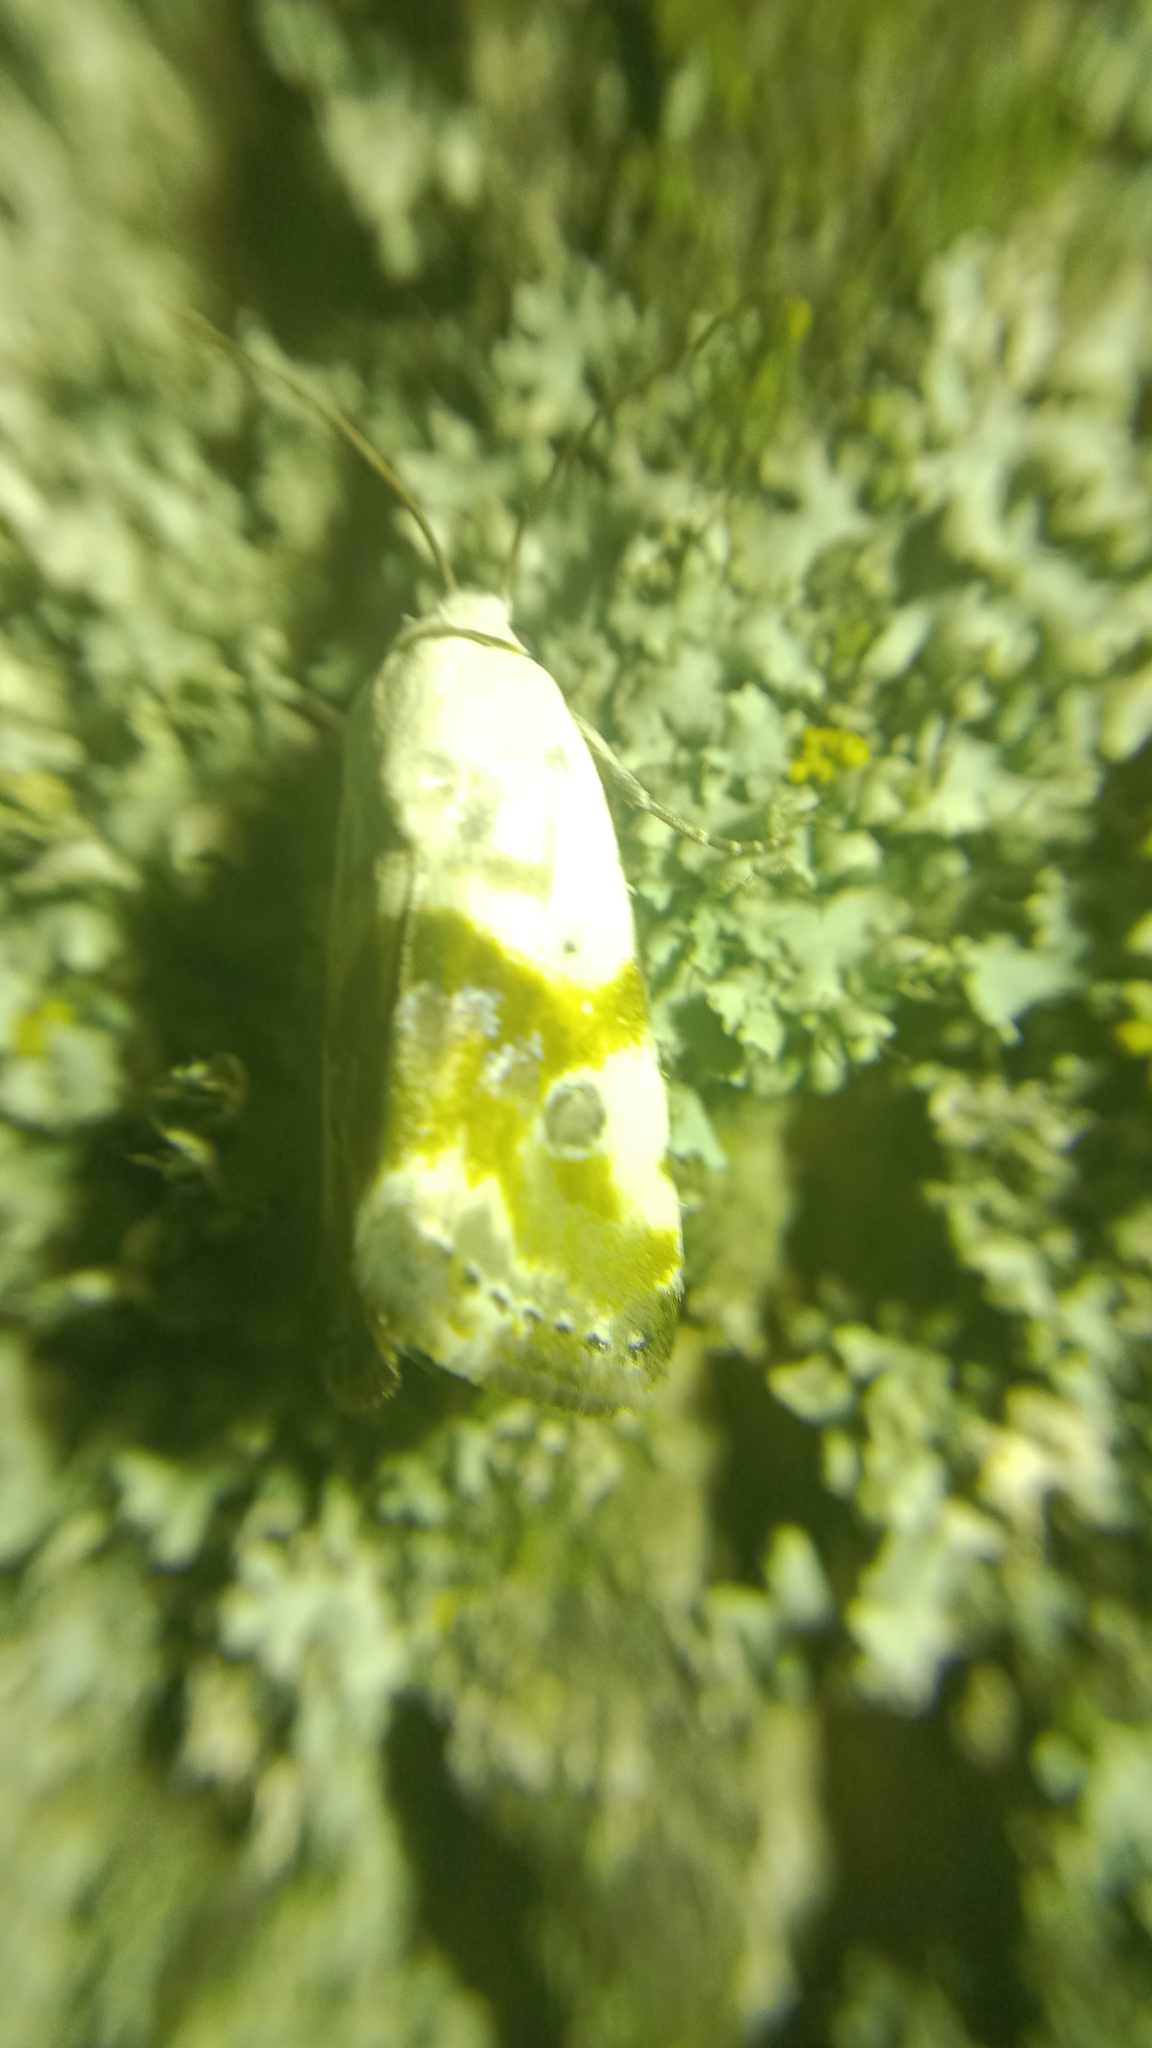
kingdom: Animalia
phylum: Arthropoda
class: Insecta
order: Lepidoptera
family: Noctuidae
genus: Acontia
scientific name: Acontia candefacta
